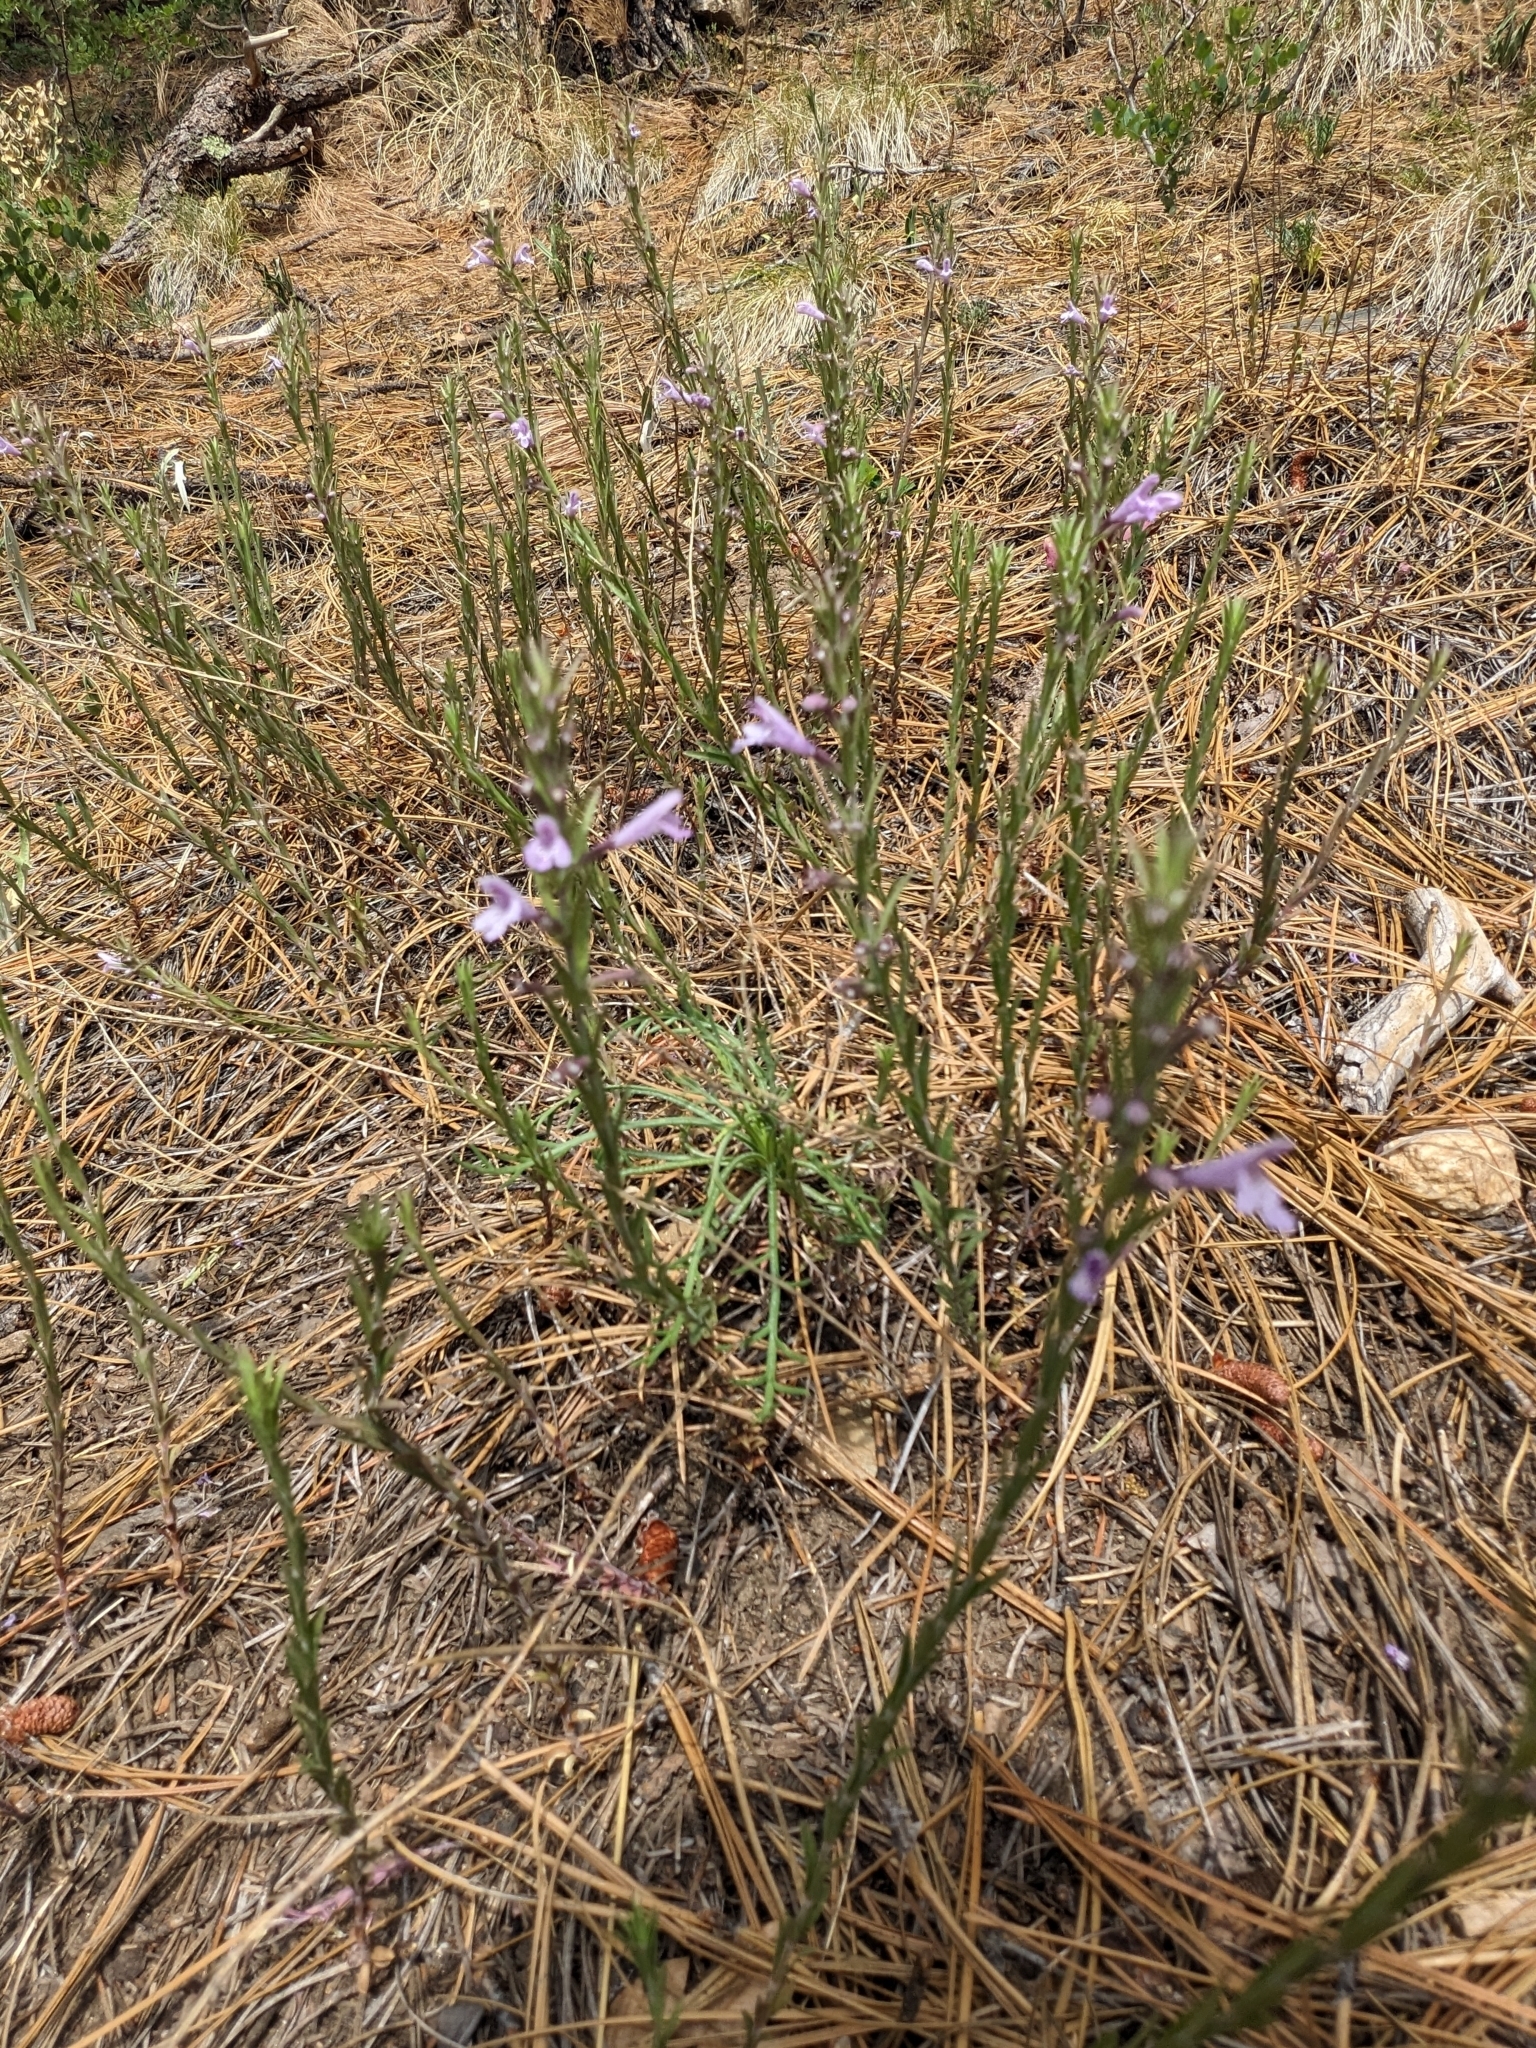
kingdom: Plantae
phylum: Tracheophyta
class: Magnoliopsida
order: Lamiales
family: Lamiaceae
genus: Hedeoma
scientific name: Hedeoma hyssopifolia
